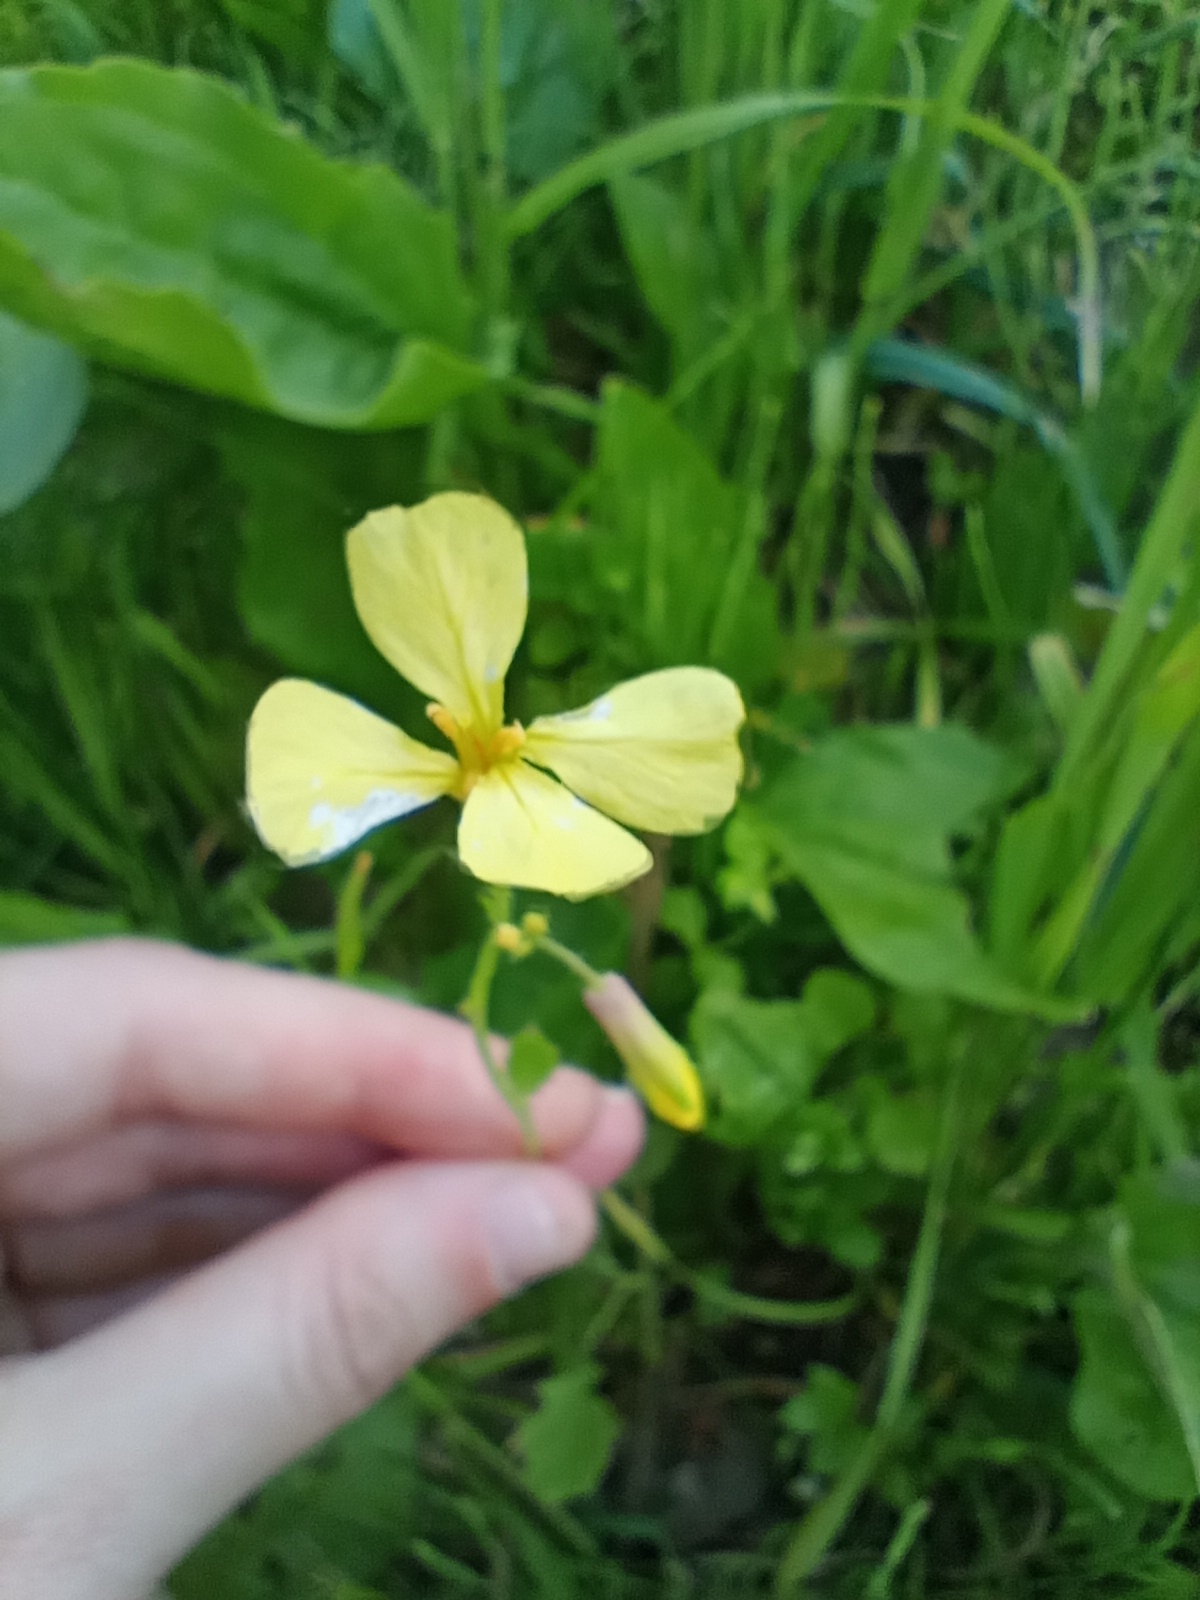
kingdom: Plantae
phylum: Tracheophyta
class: Magnoliopsida
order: Brassicales
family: Brassicaceae
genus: Raphanus
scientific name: Raphanus raphanistrum
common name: Wild radish
